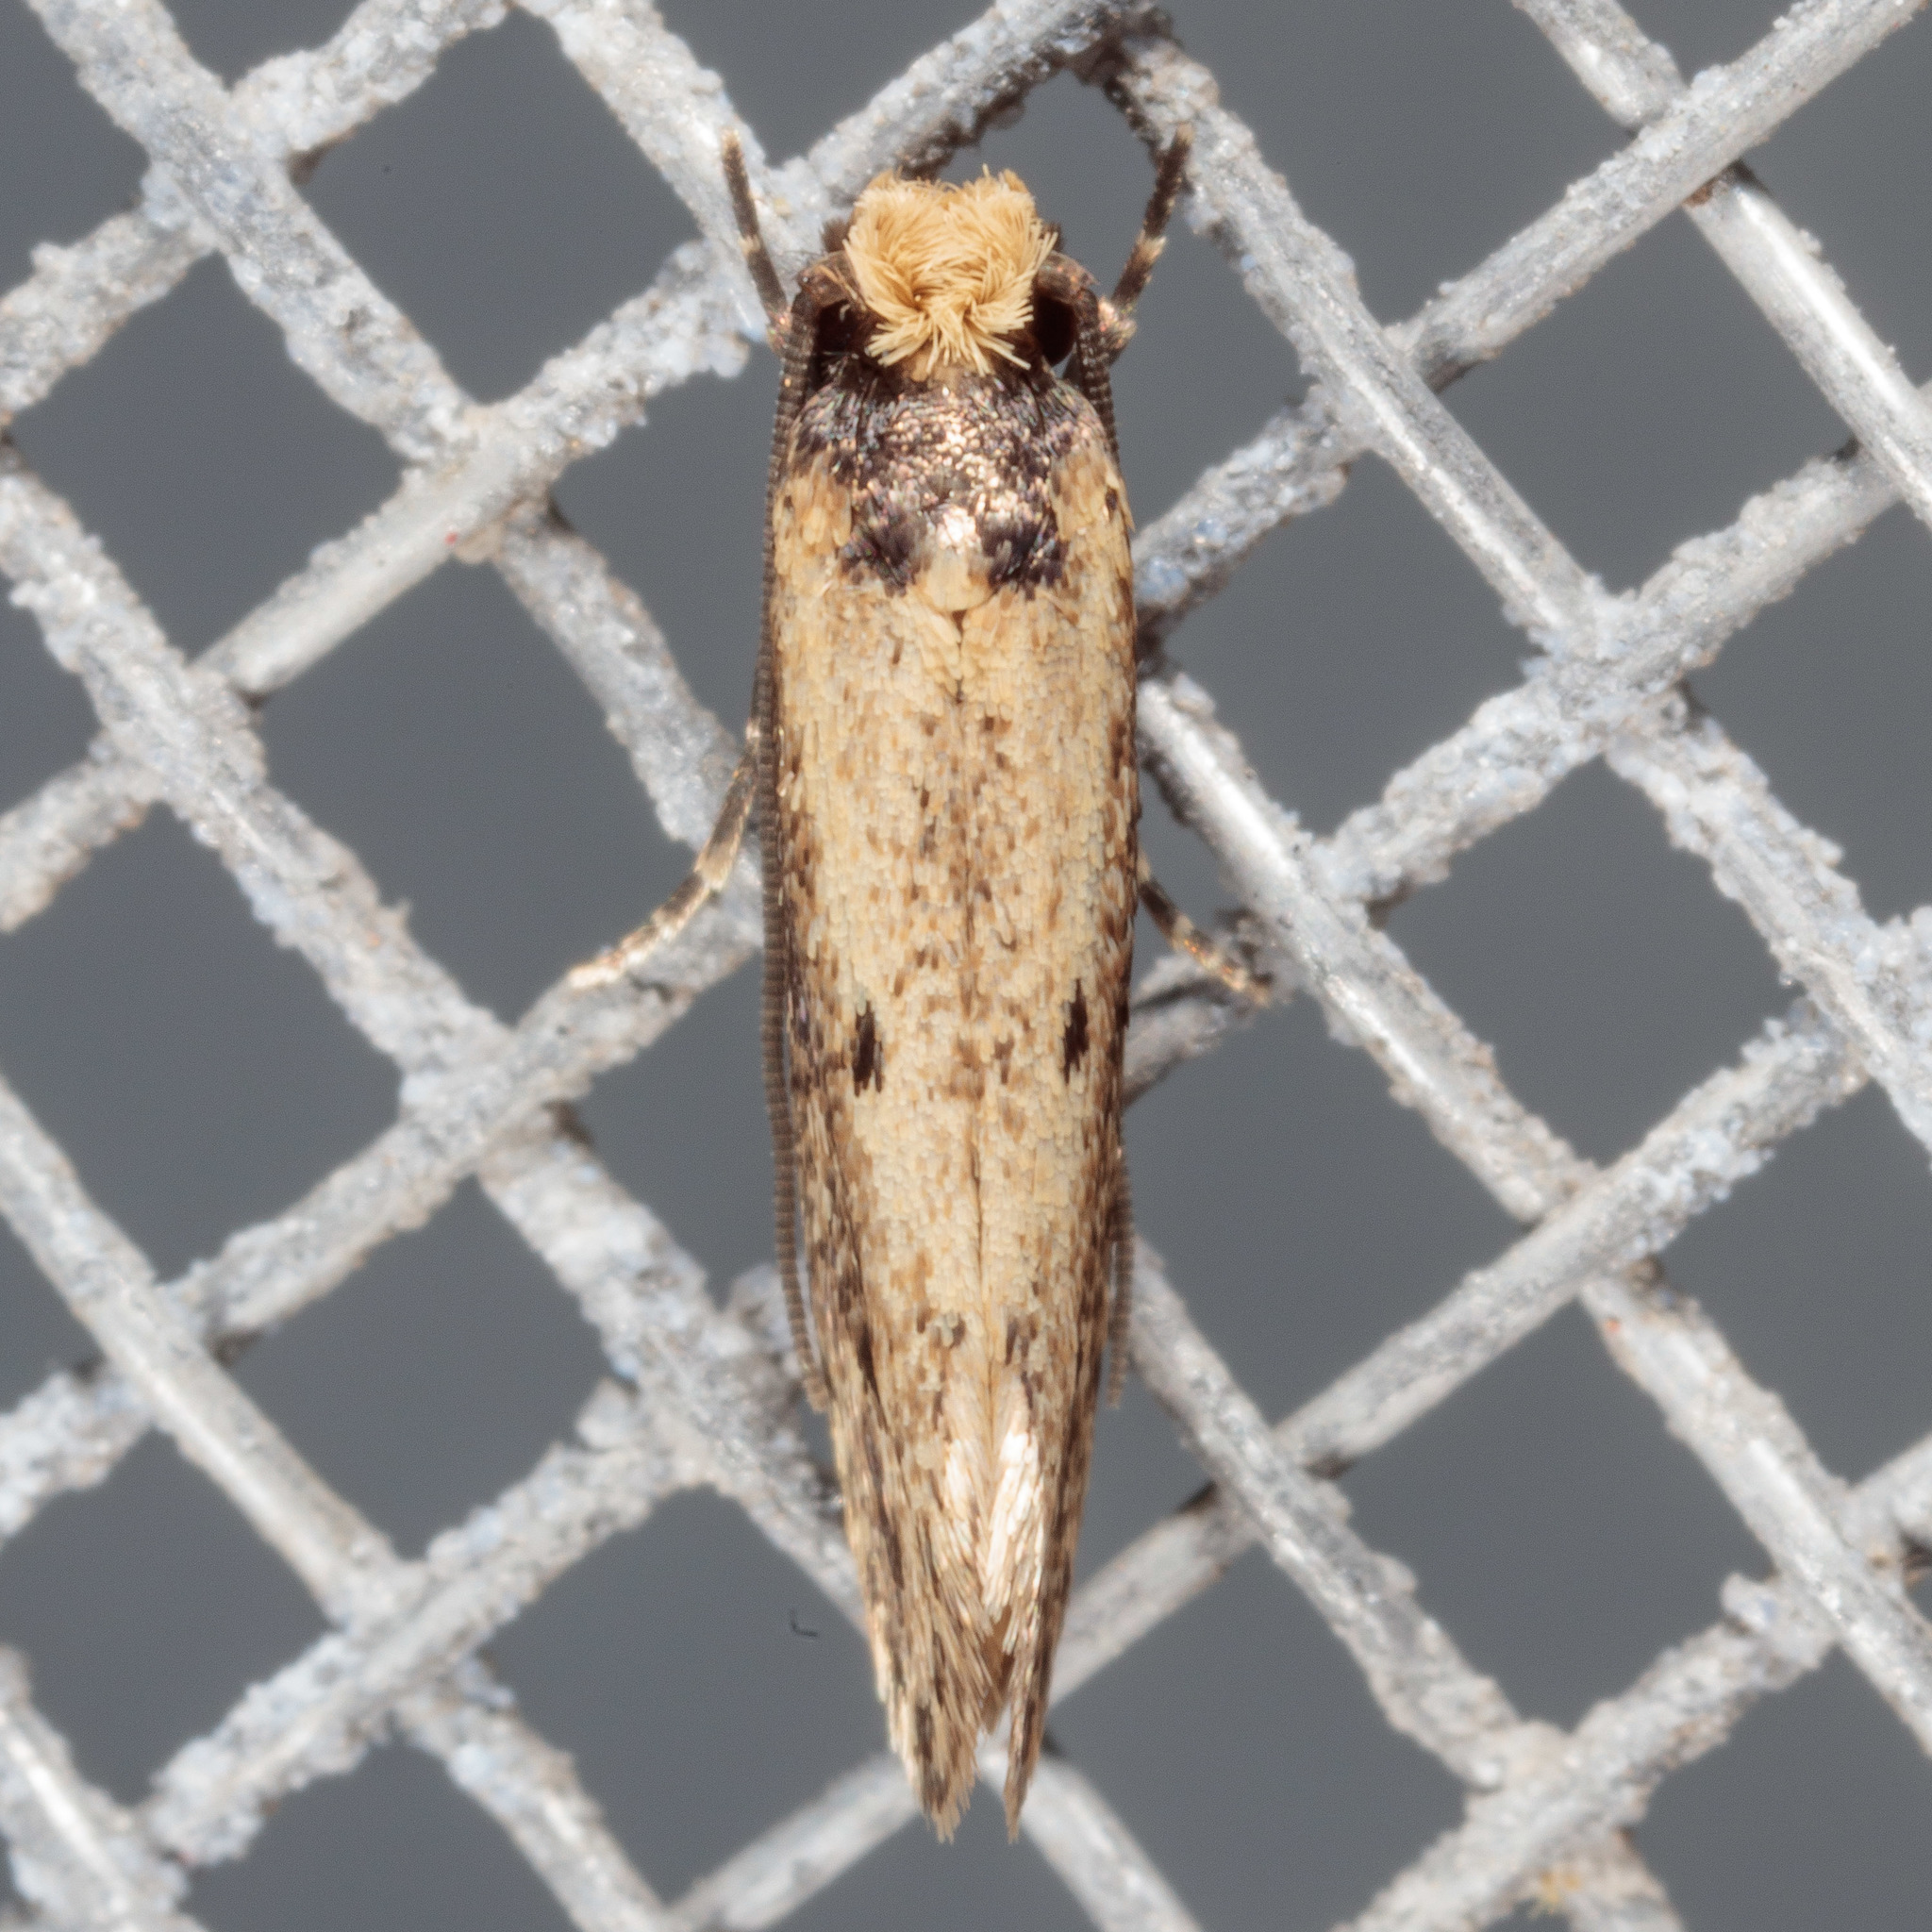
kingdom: Animalia
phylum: Arthropoda
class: Insecta
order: Lepidoptera
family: Tineidae
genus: Tinea
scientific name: Tinea apicimaculella
